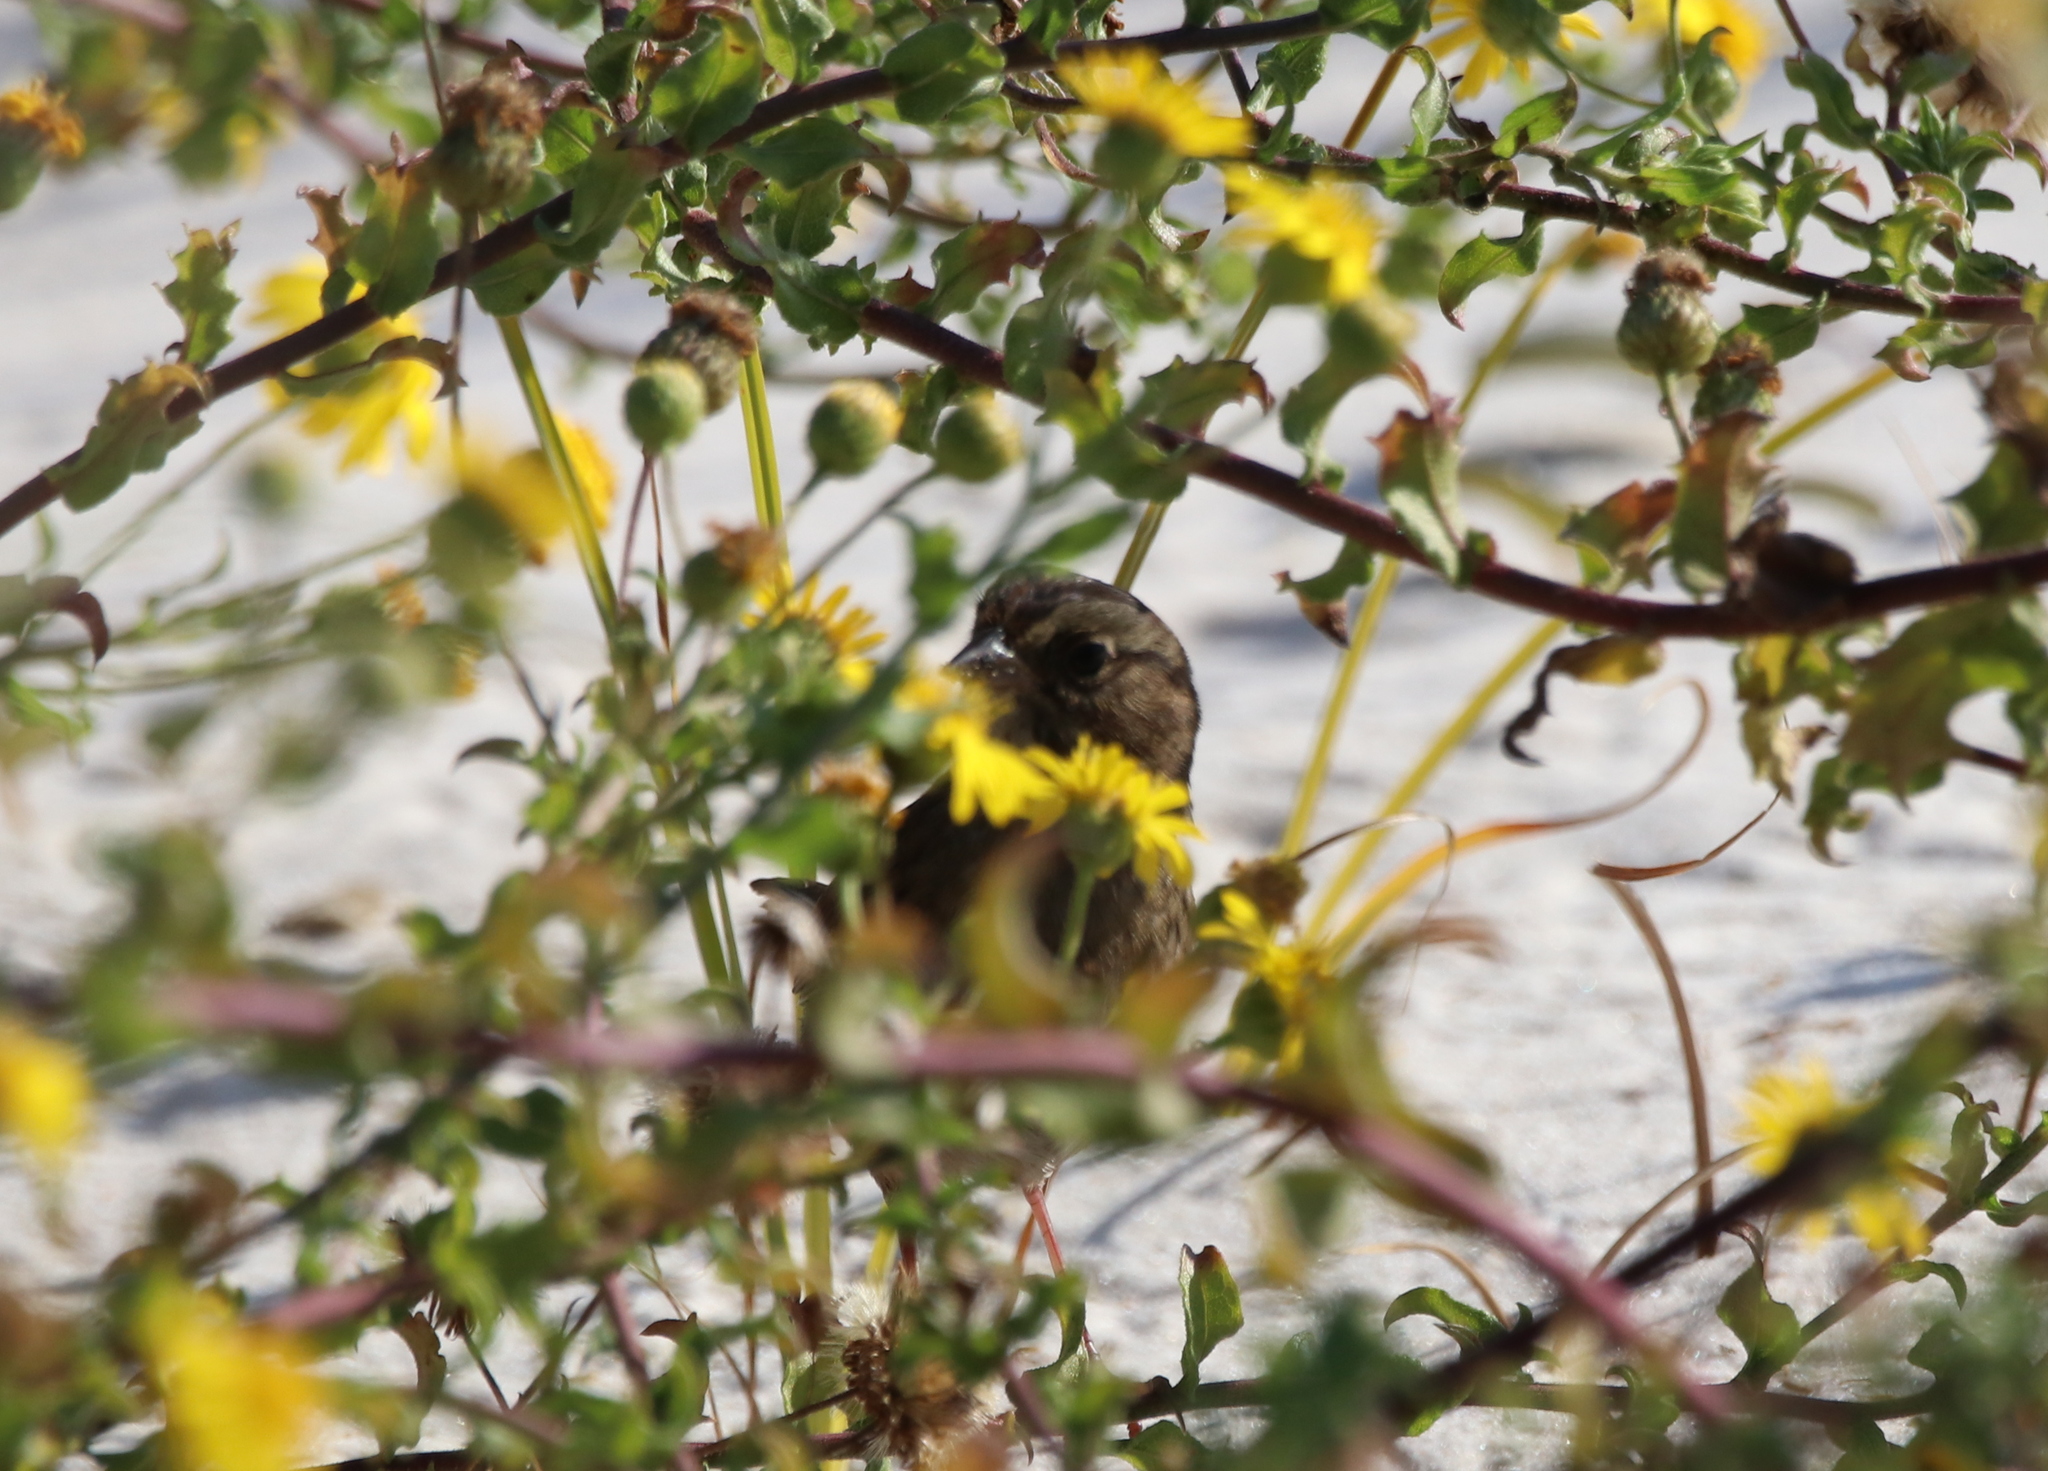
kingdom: Animalia
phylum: Chordata
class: Aves
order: Passeriformes
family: Passerellidae
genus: Melospiza
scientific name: Melospiza melodia
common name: Song sparrow
